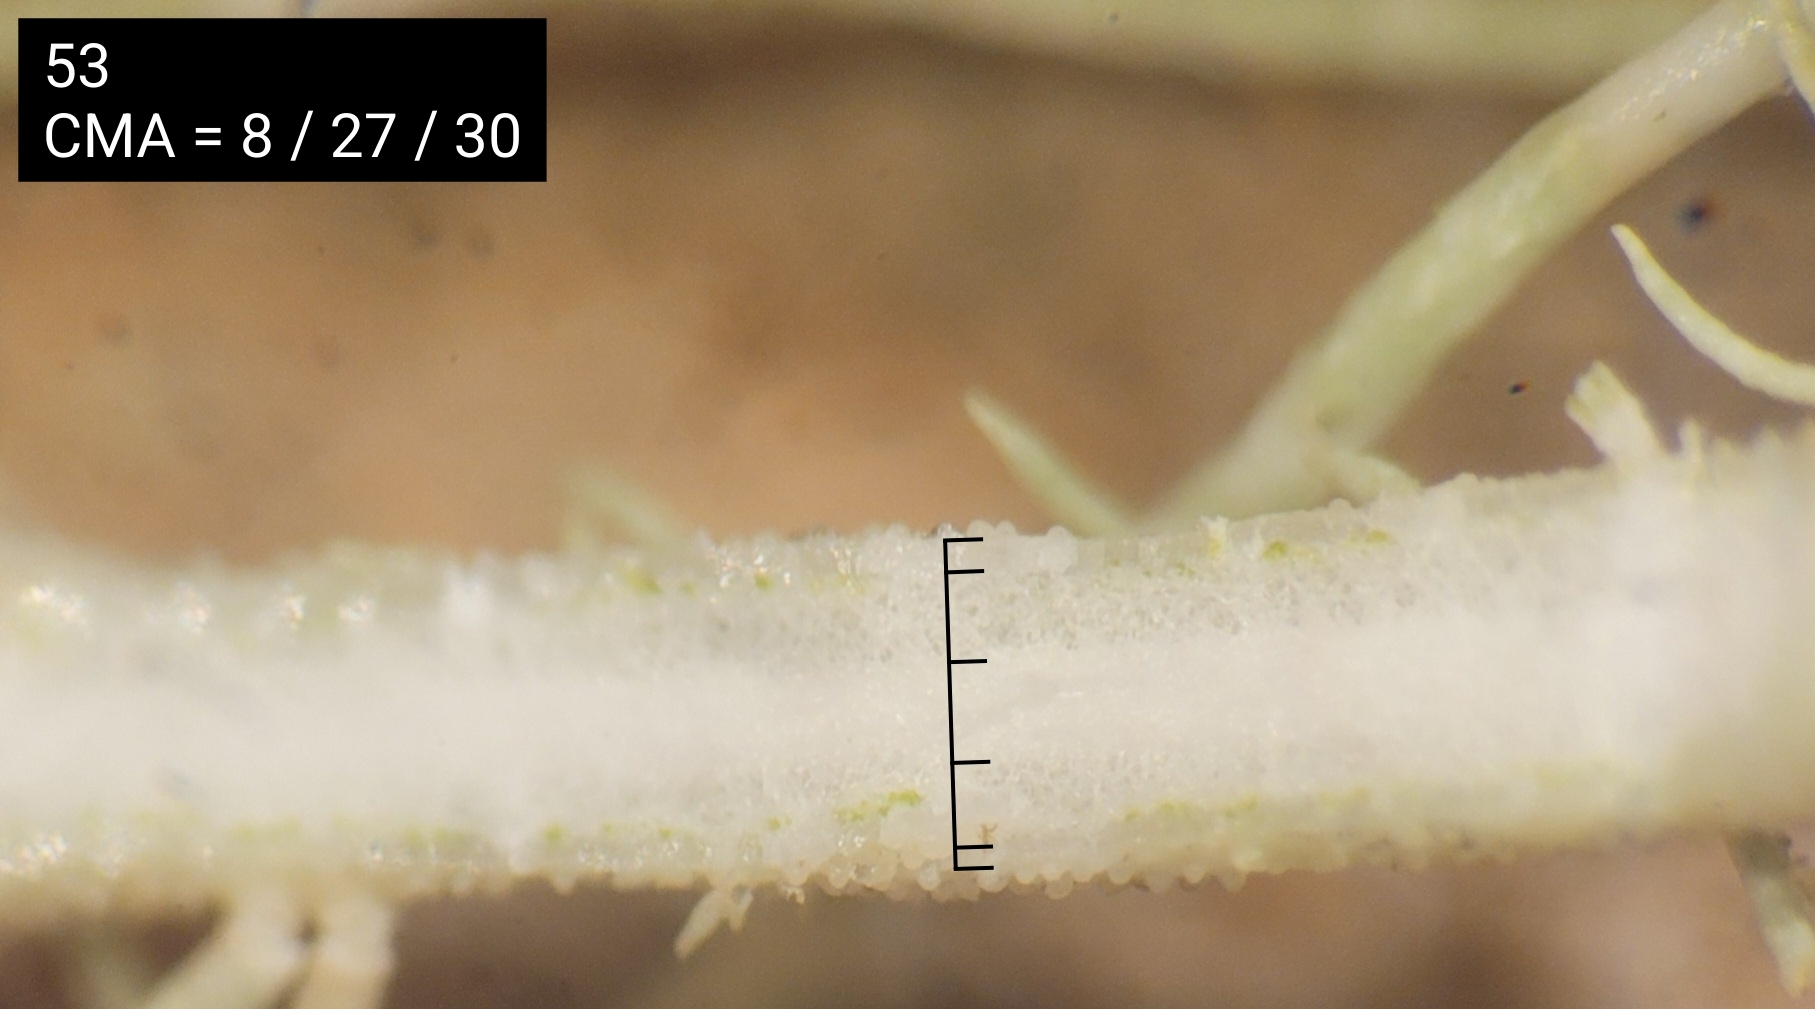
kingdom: Fungi
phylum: Ascomycota
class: Lecanoromycetes
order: Lecanorales
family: Parmeliaceae
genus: Usnea
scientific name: Usnea scabrata
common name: Straw beard lichen
